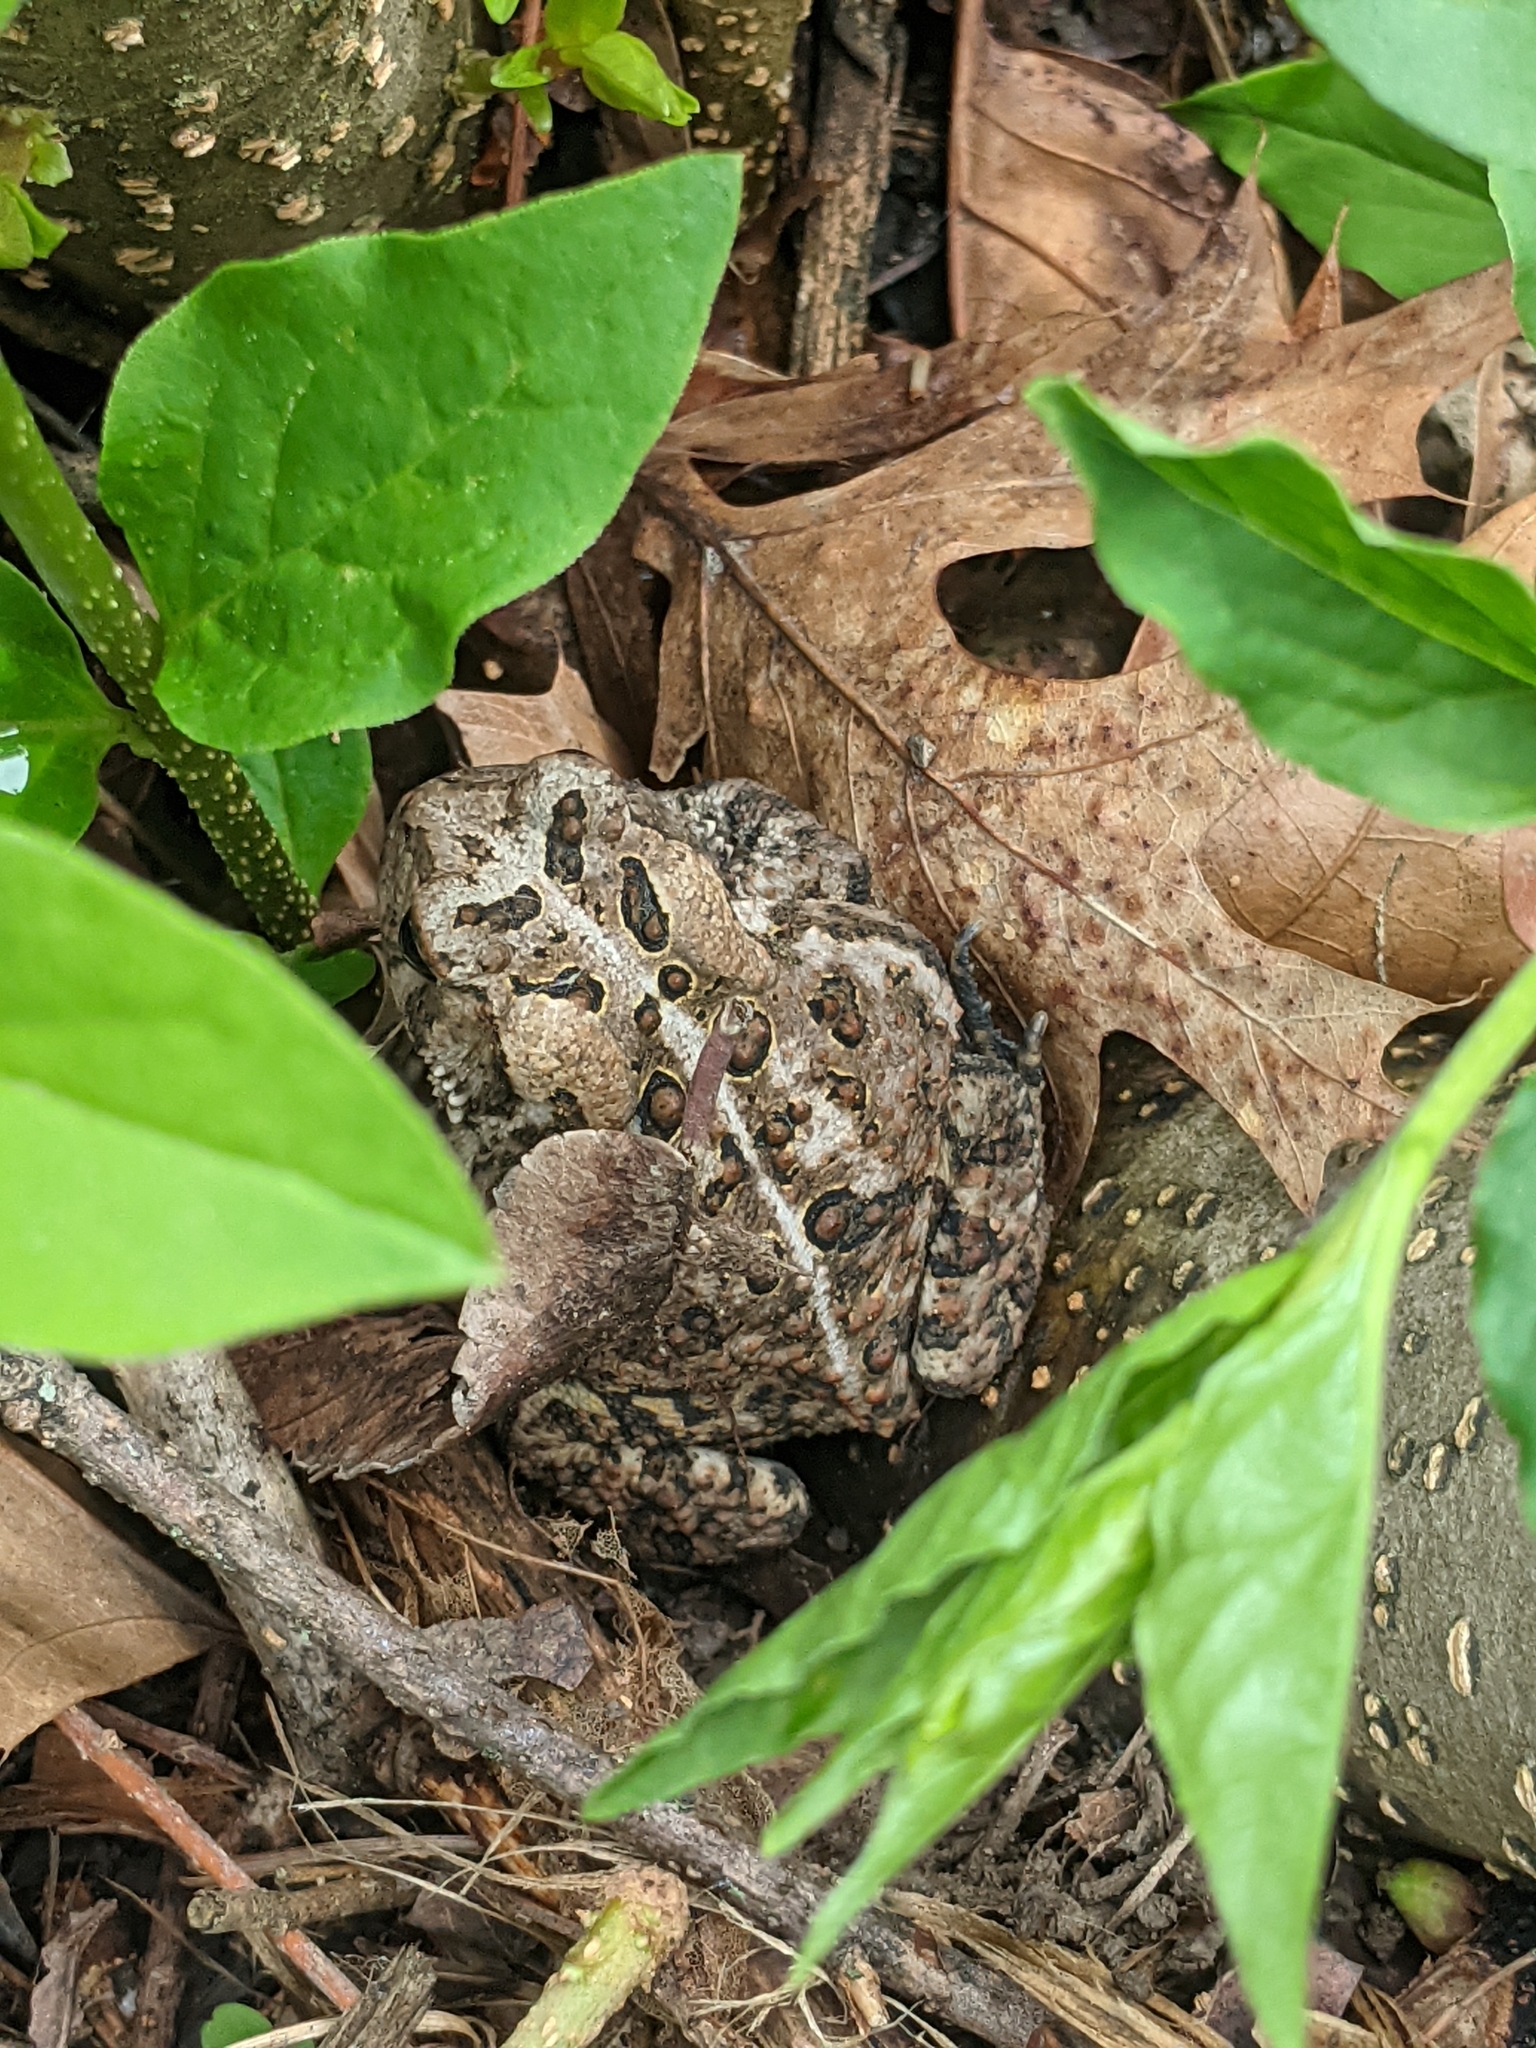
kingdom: Animalia
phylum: Chordata
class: Amphibia
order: Anura
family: Bufonidae
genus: Anaxyrus
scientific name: Anaxyrus americanus
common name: American toad
